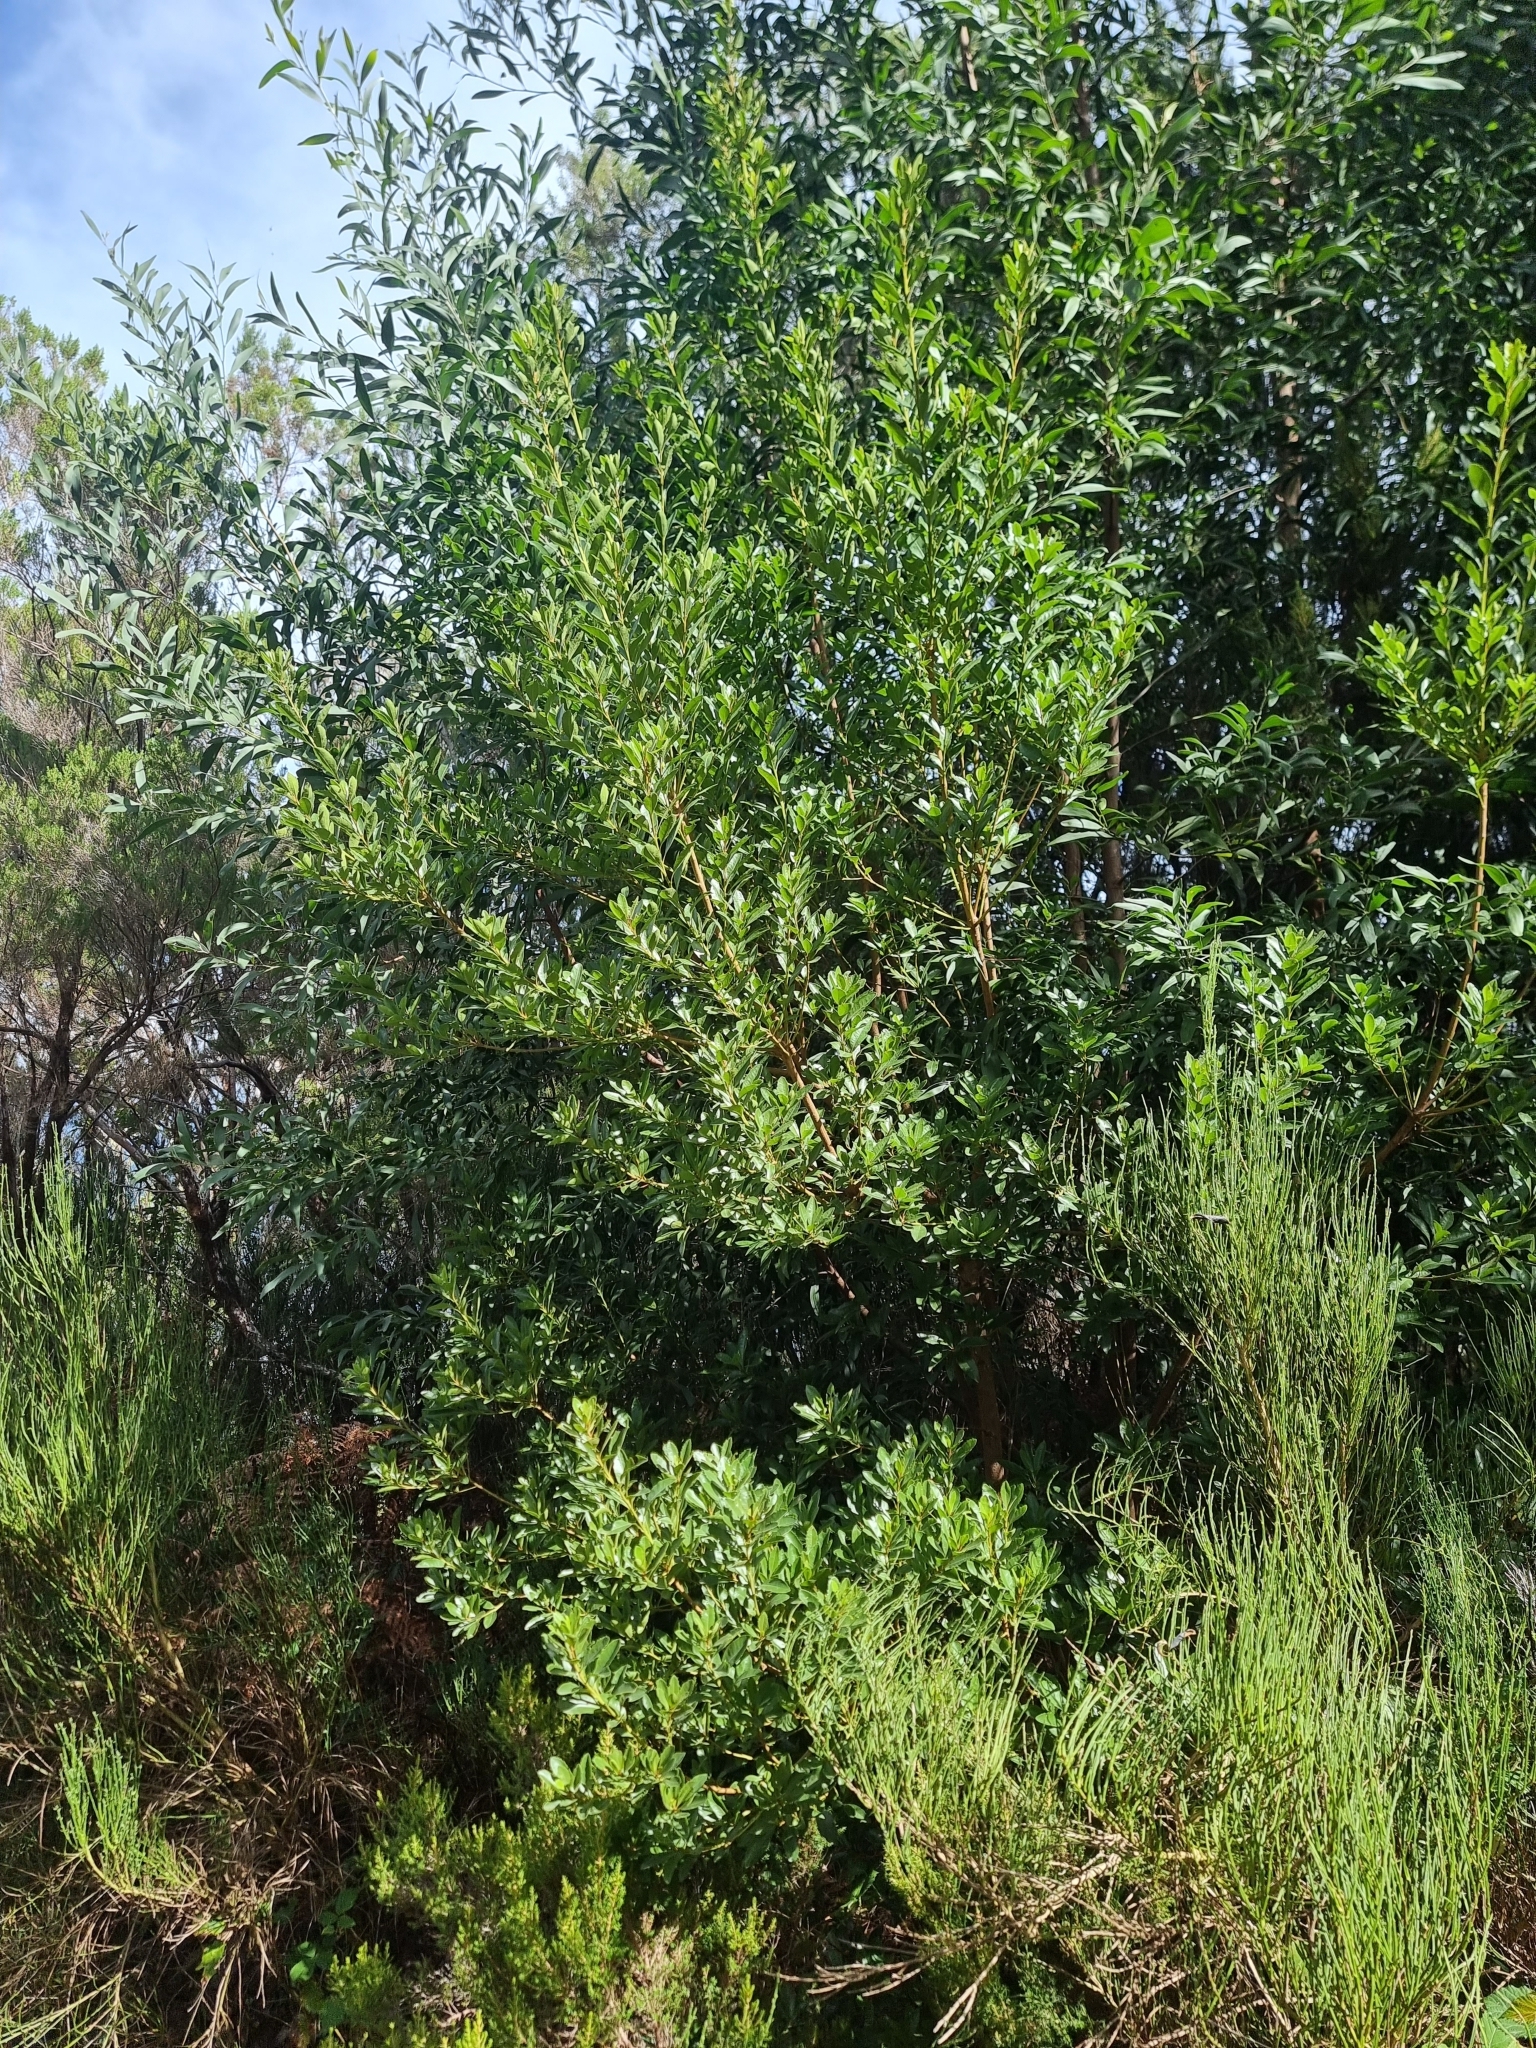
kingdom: Plantae
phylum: Tracheophyta
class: Magnoliopsida
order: Fagales
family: Myricaceae
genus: Morella
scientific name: Morella faya
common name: Firetree
